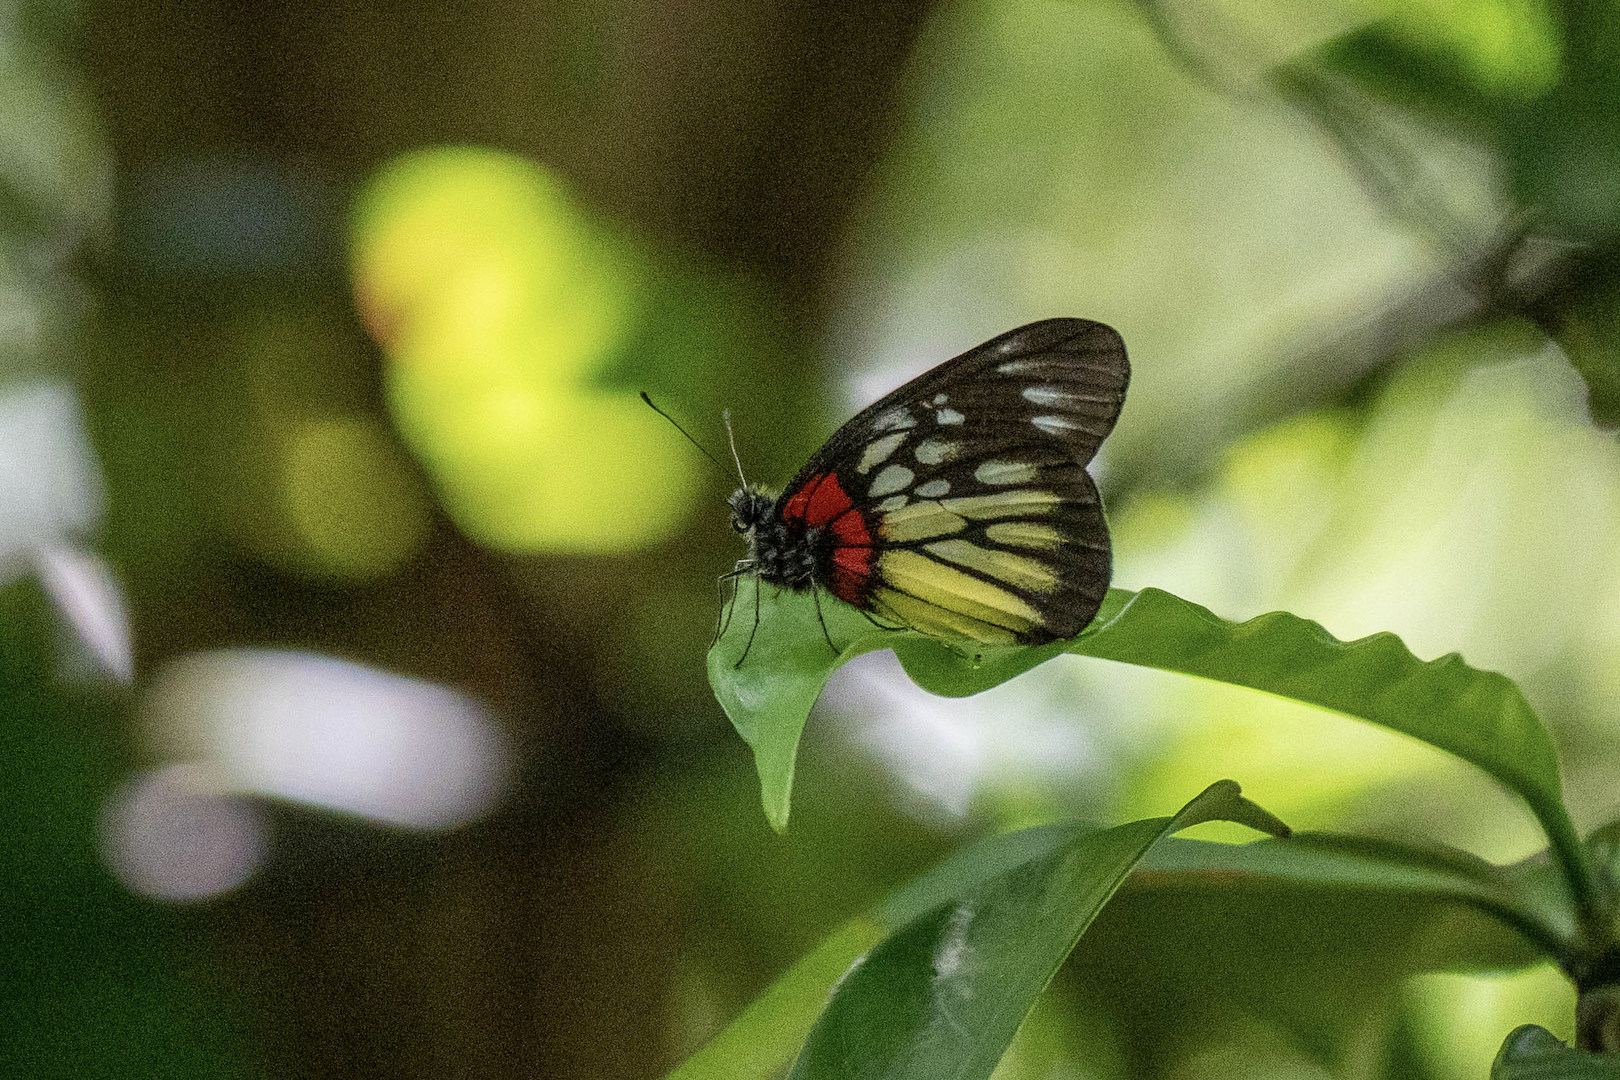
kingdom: Animalia
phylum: Arthropoda
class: Insecta
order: Lepidoptera
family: Pieridae
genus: Delias
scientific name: Delias pasithoe
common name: Red-base jezebel
